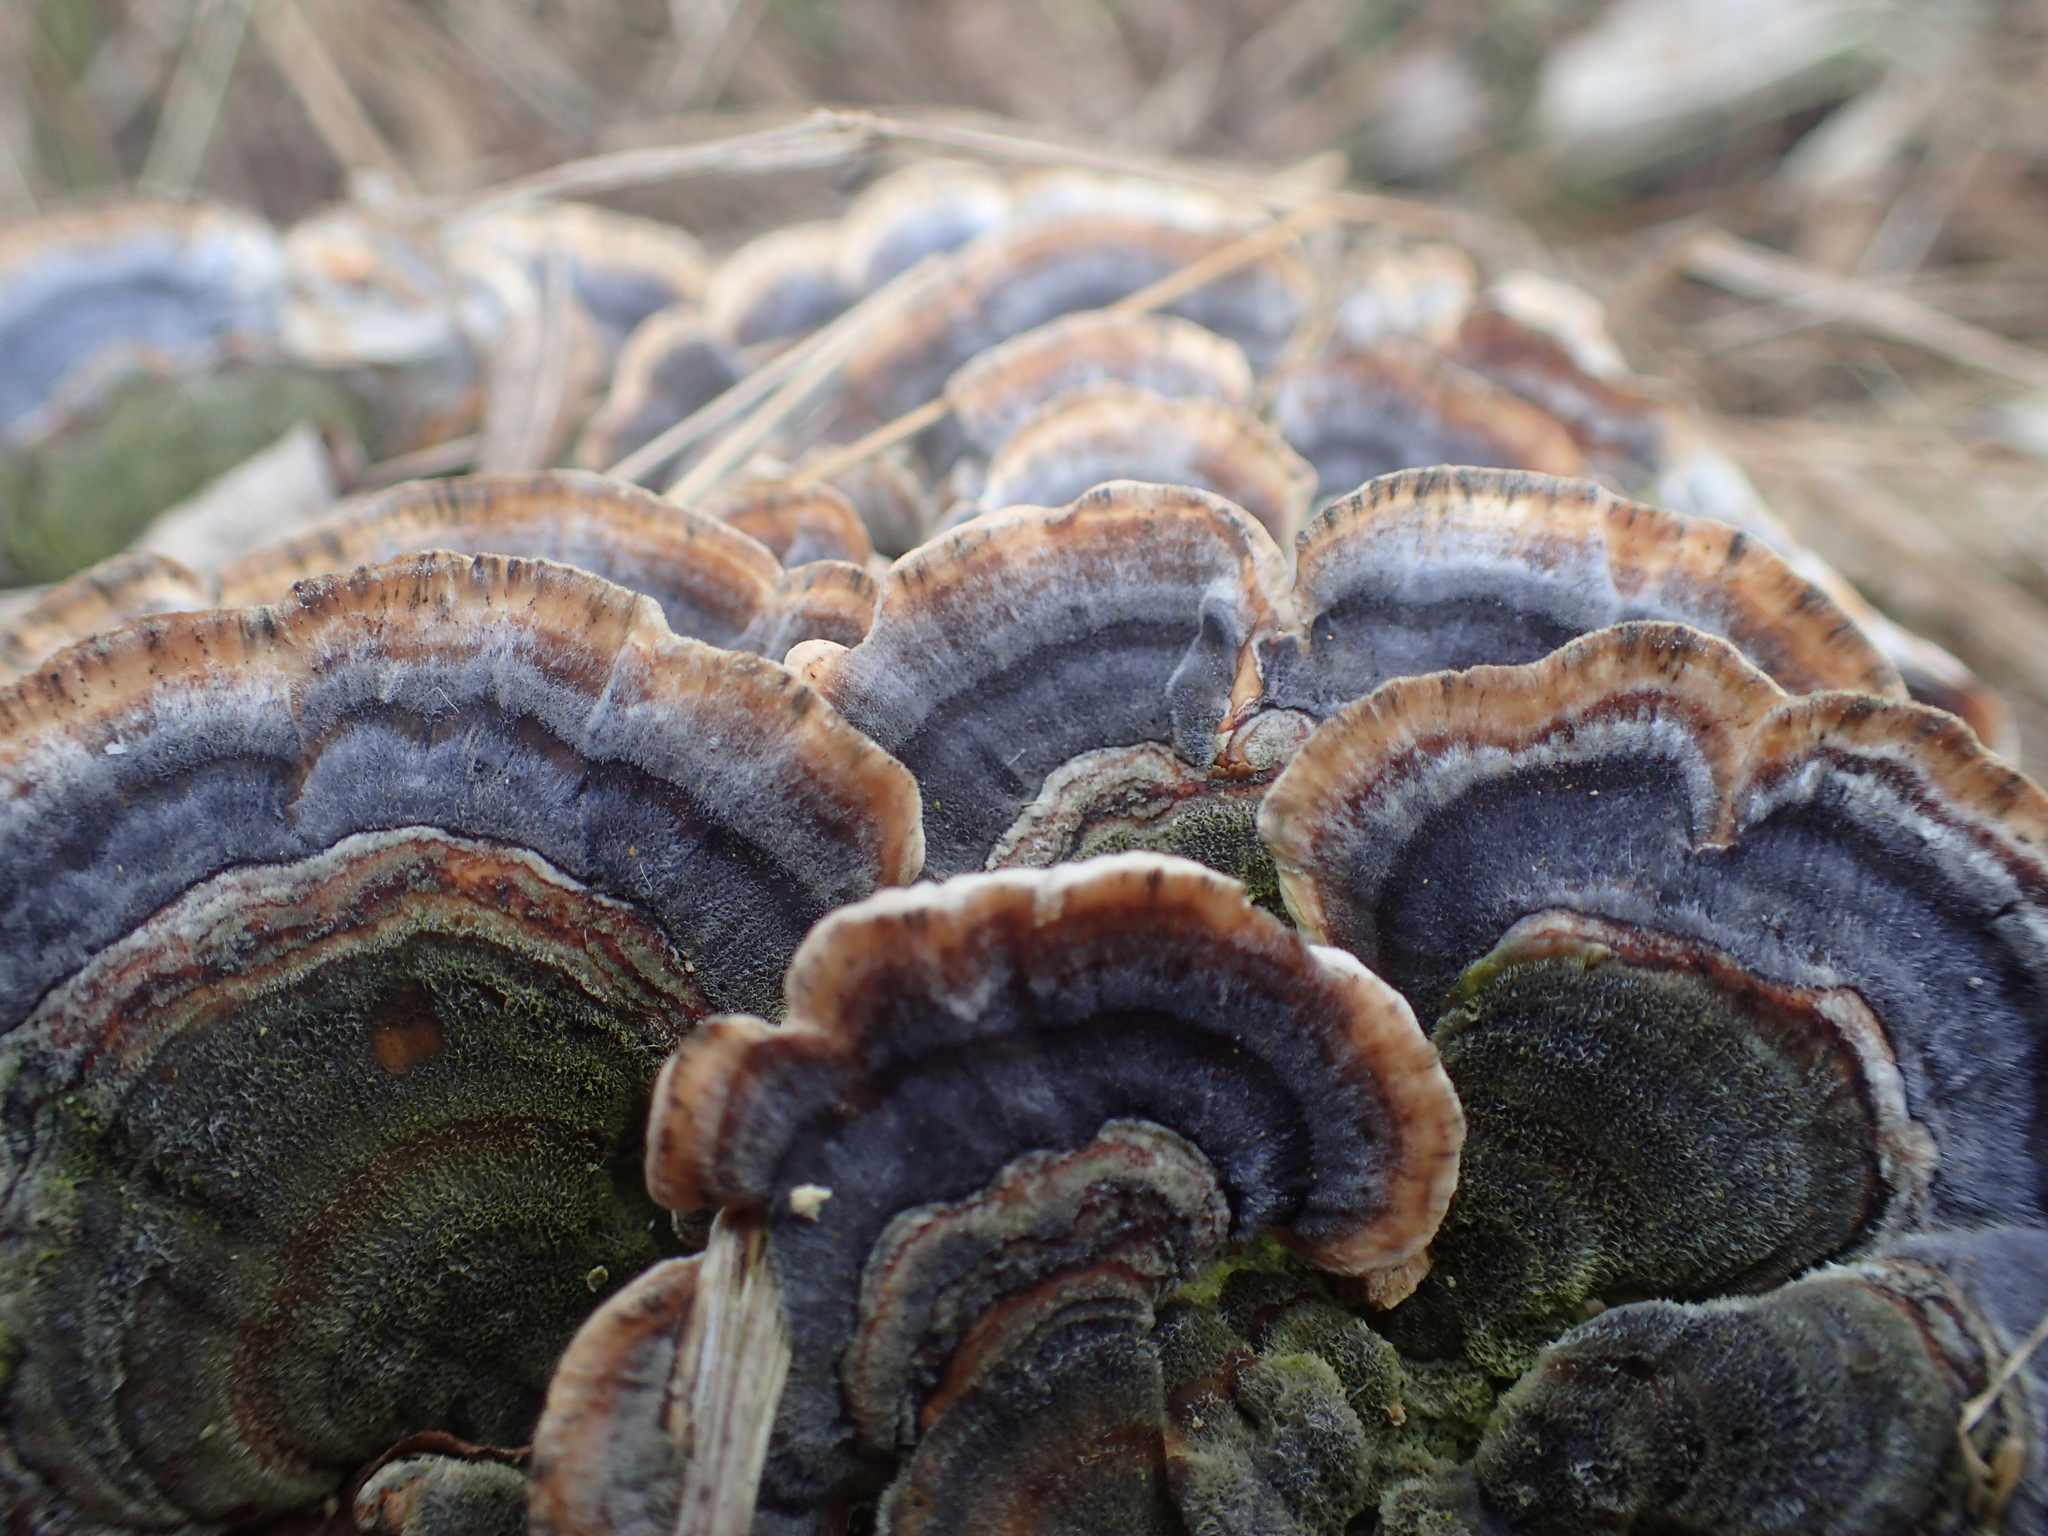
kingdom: Fungi
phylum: Basidiomycota
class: Agaricomycetes
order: Polyporales
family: Polyporaceae
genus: Trametes
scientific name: Trametes versicolor
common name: Turkeytail
